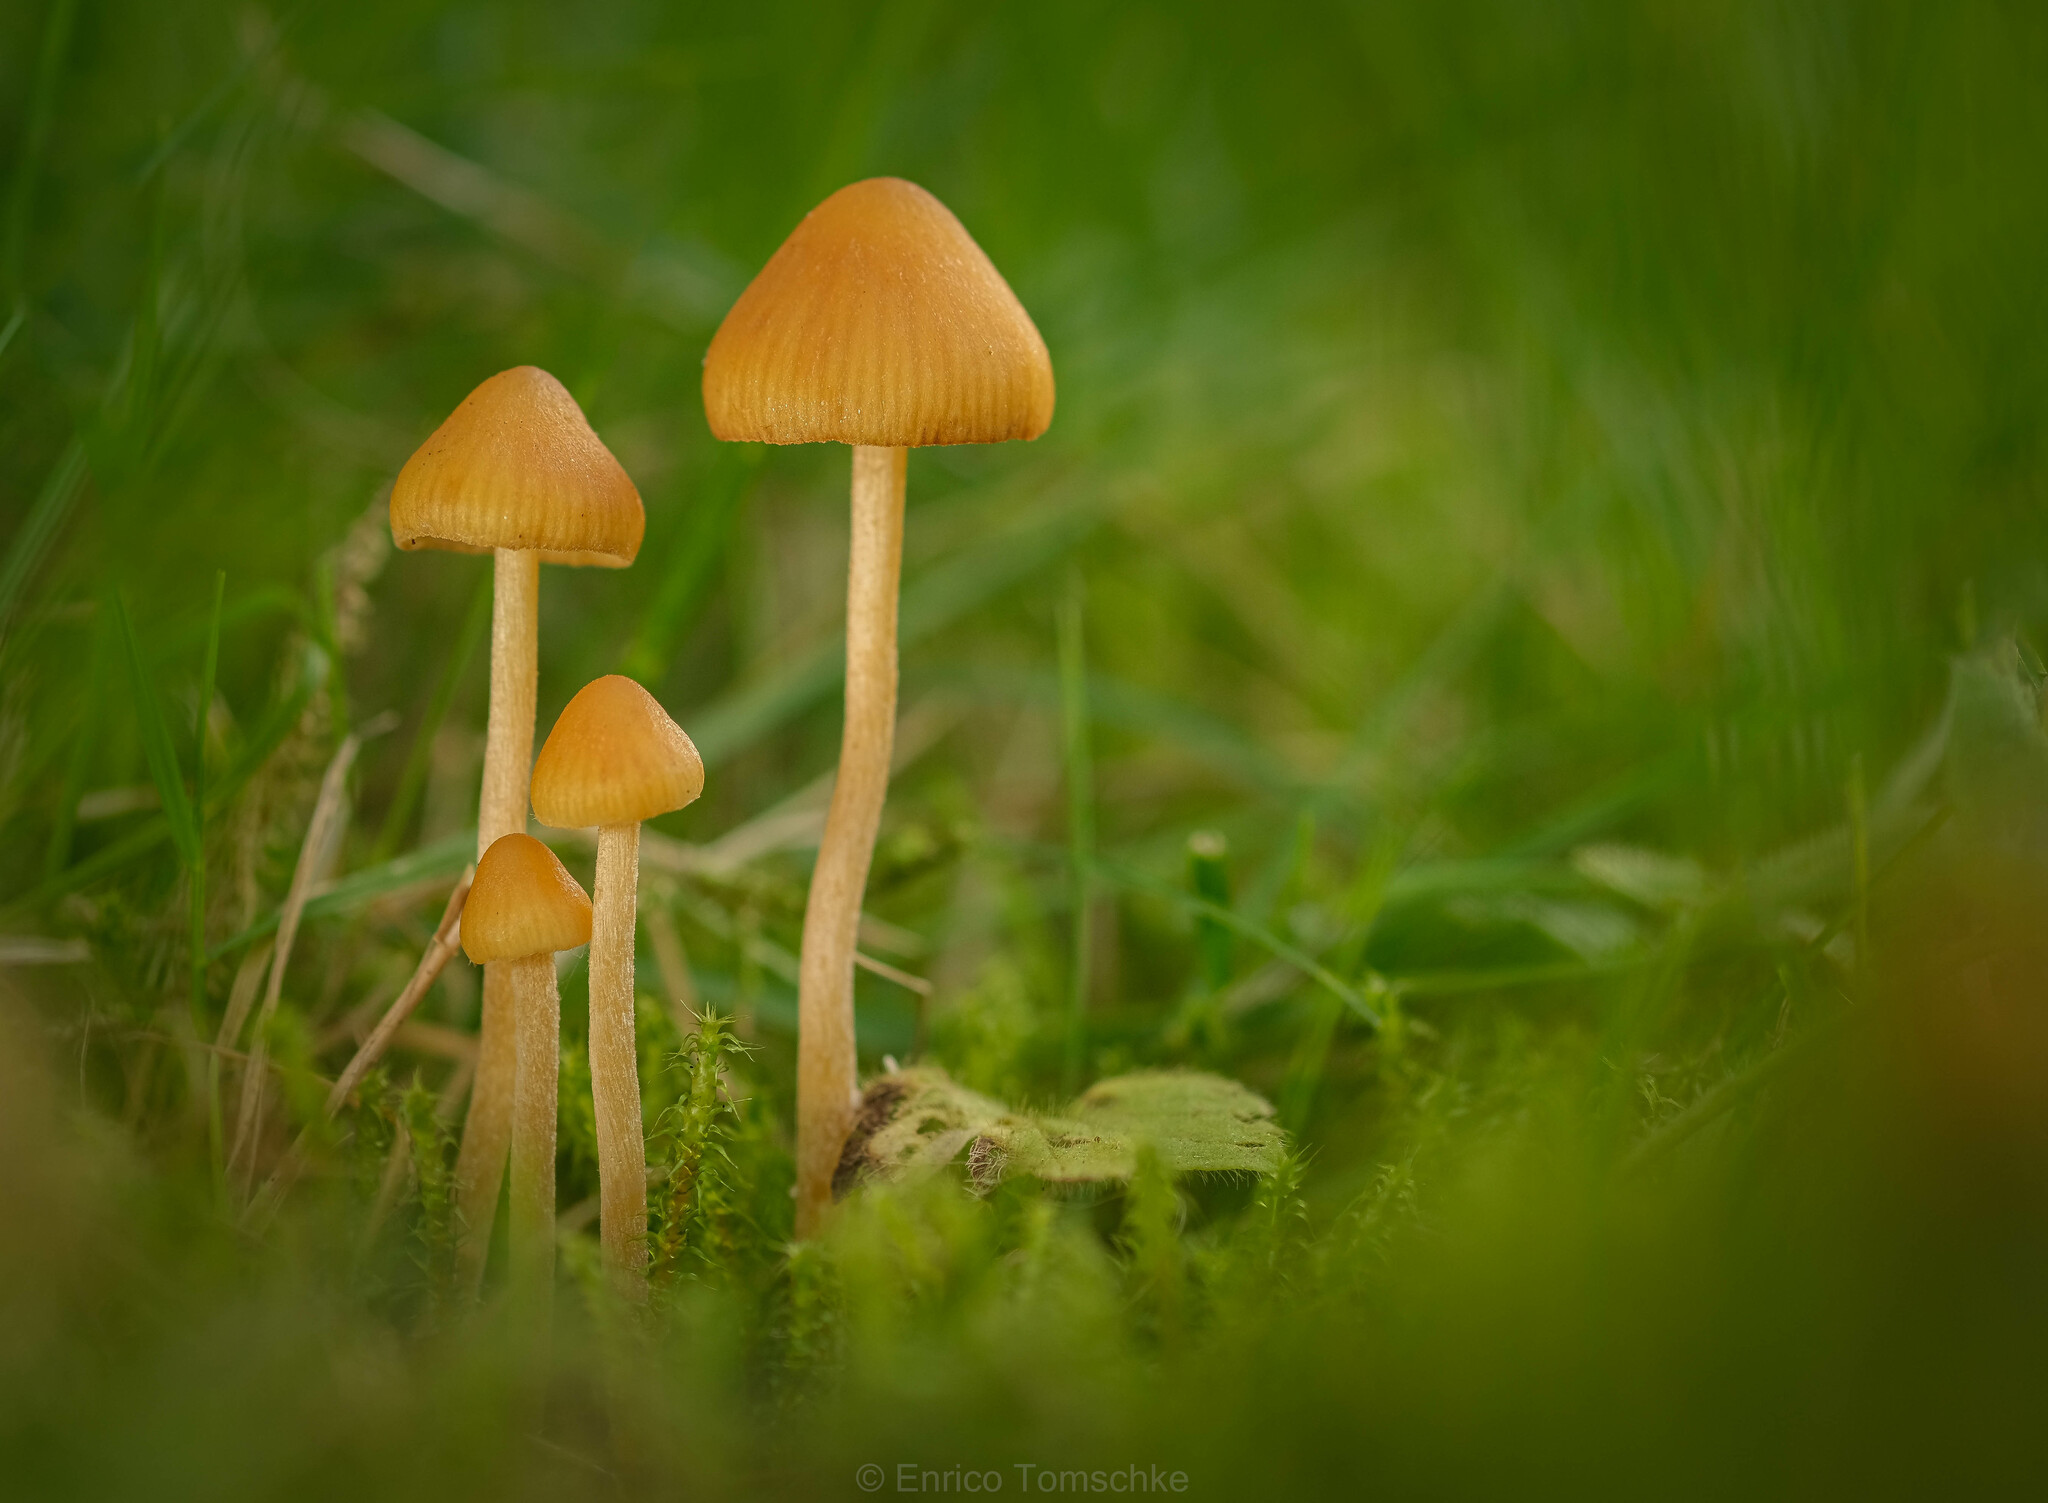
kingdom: Fungi
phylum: Basidiomycota
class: Agaricomycetes
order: Agaricales
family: Hymenogastraceae
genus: Galerina
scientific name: Galerina subclavata
